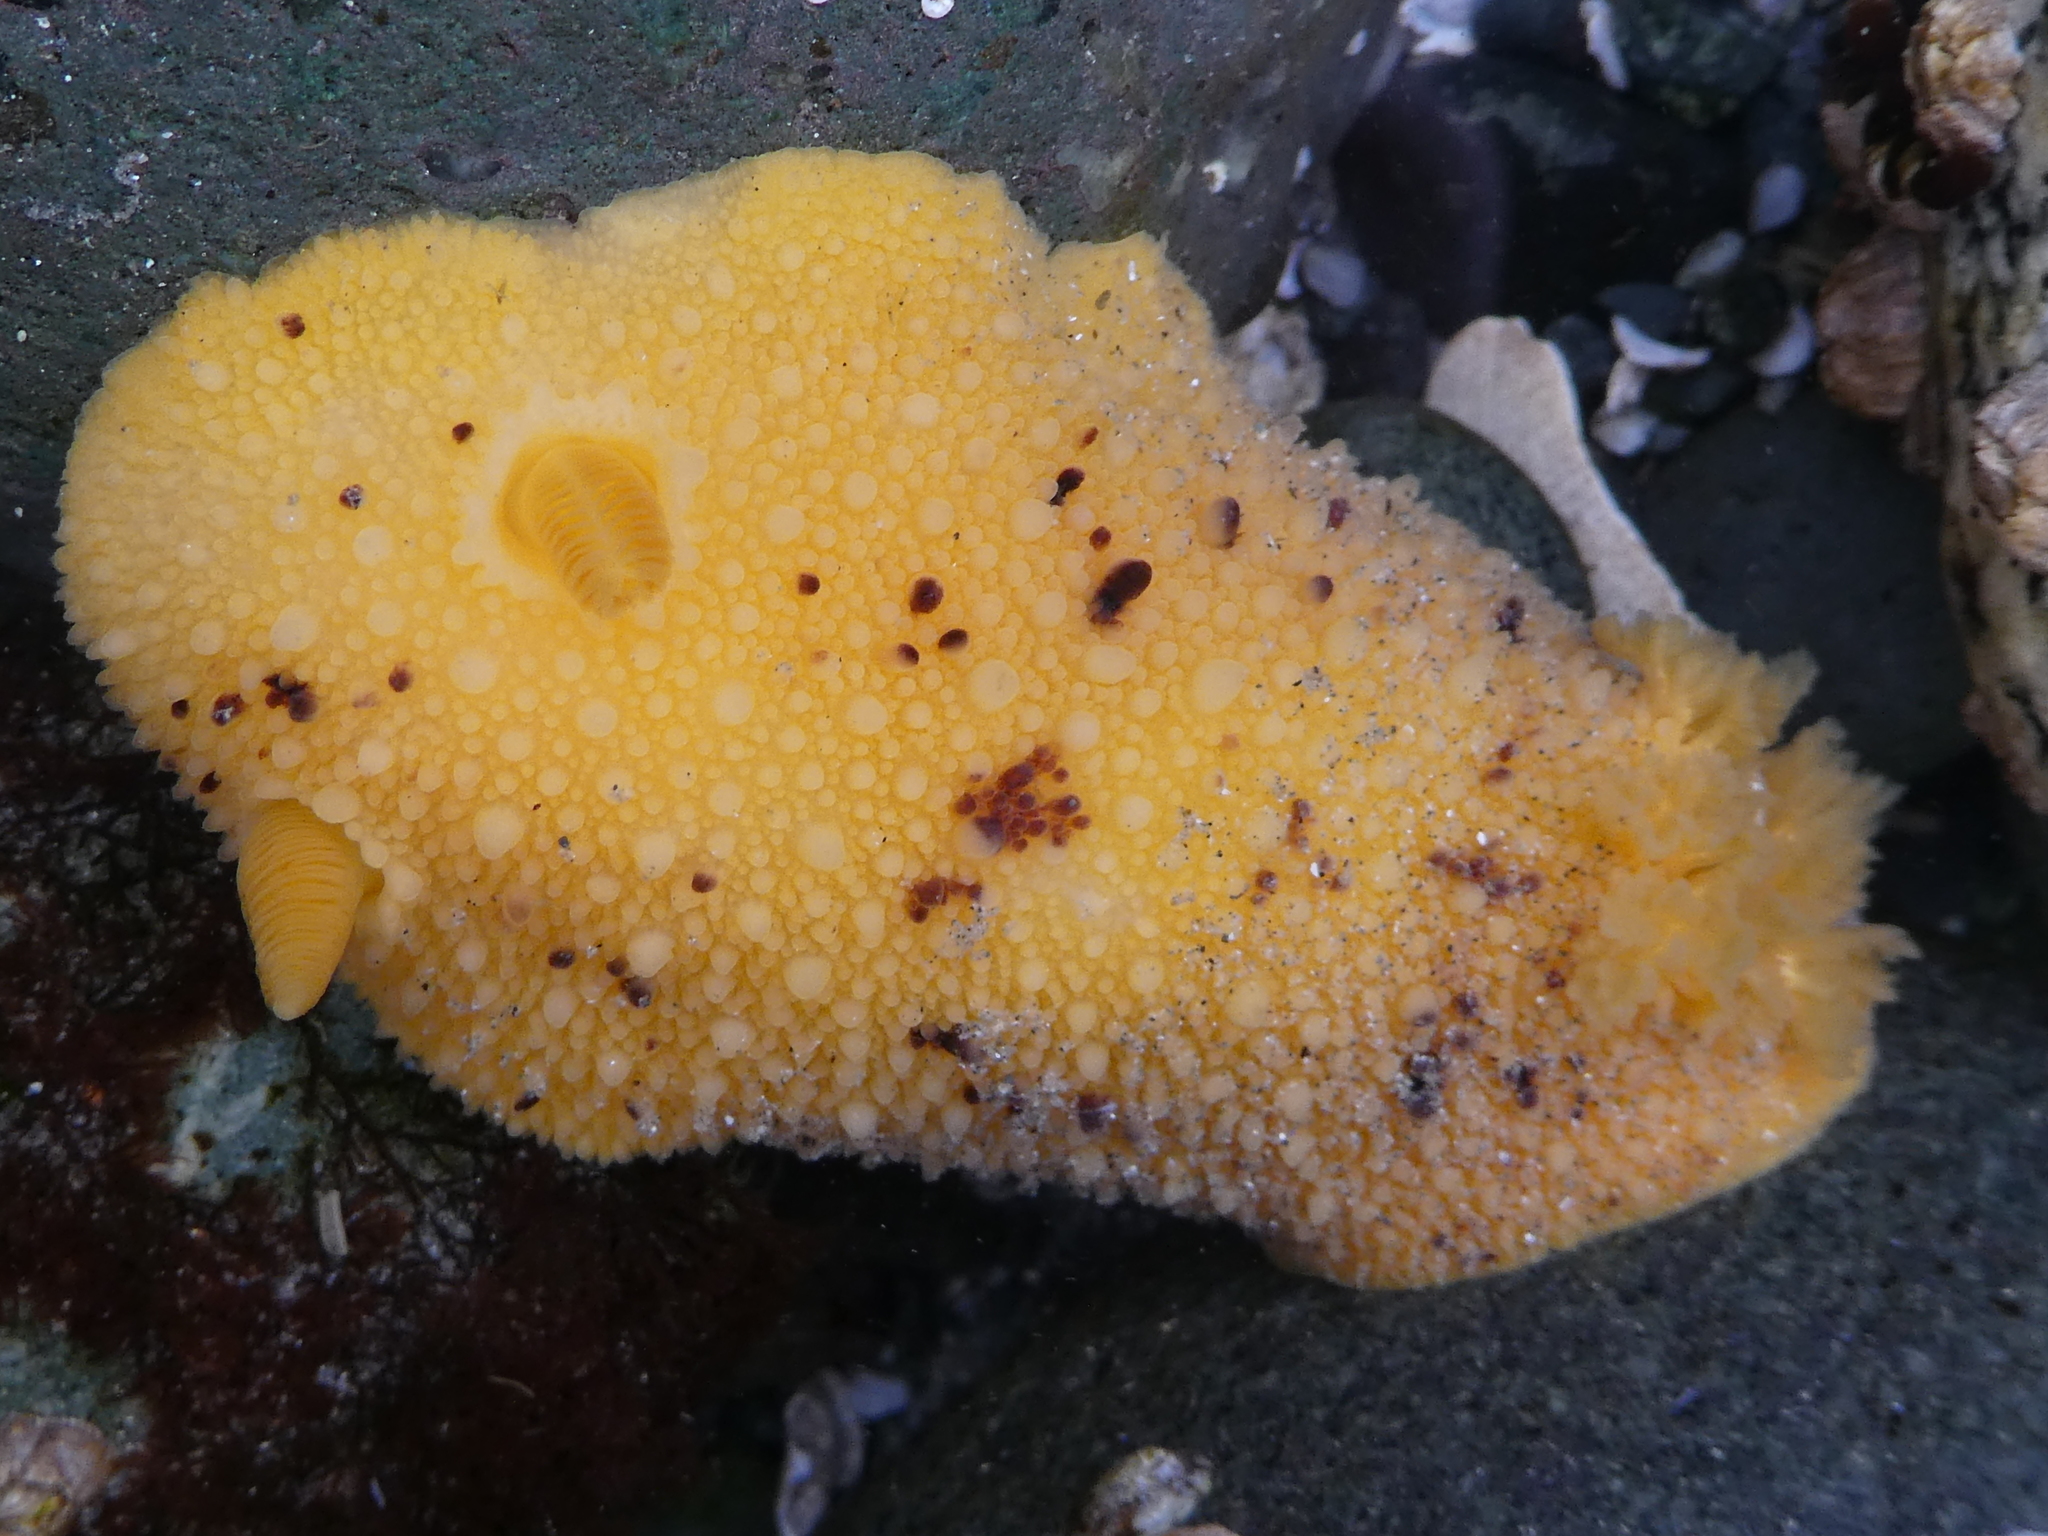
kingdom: Animalia
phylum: Mollusca
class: Gastropoda
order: Nudibranchia
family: Dorididae
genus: Doris
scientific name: Doris montereyensis
